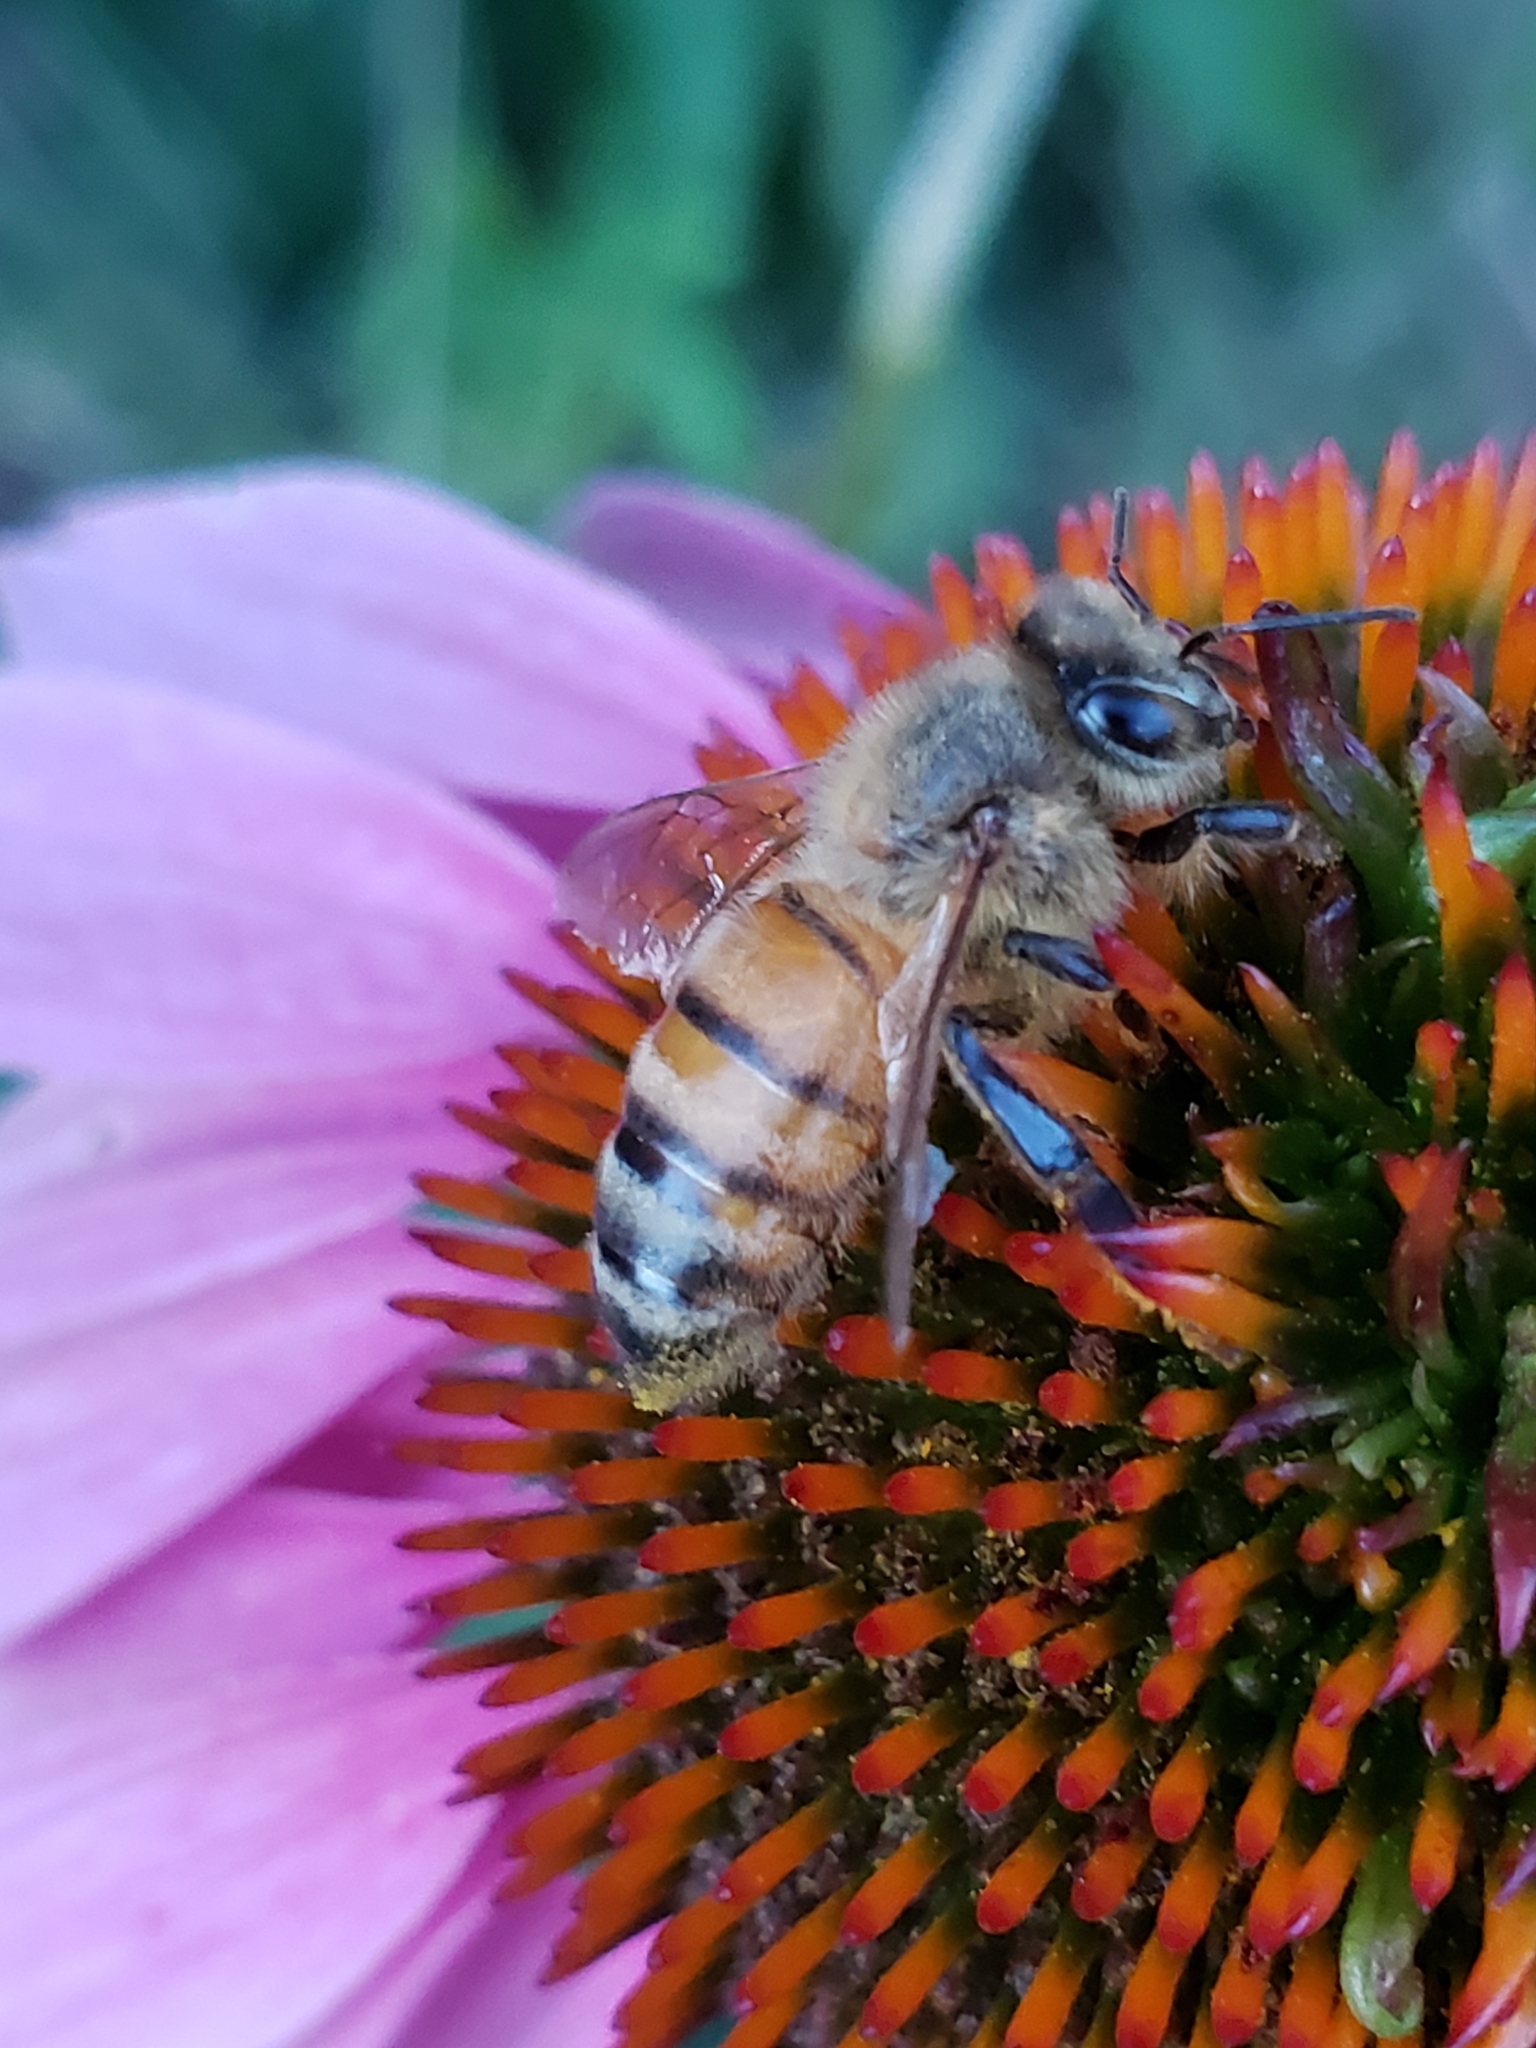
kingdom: Animalia
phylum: Arthropoda
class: Insecta
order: Hymenoptera
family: Apidae
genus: Apis
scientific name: Apis mellifera
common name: Honey bee
